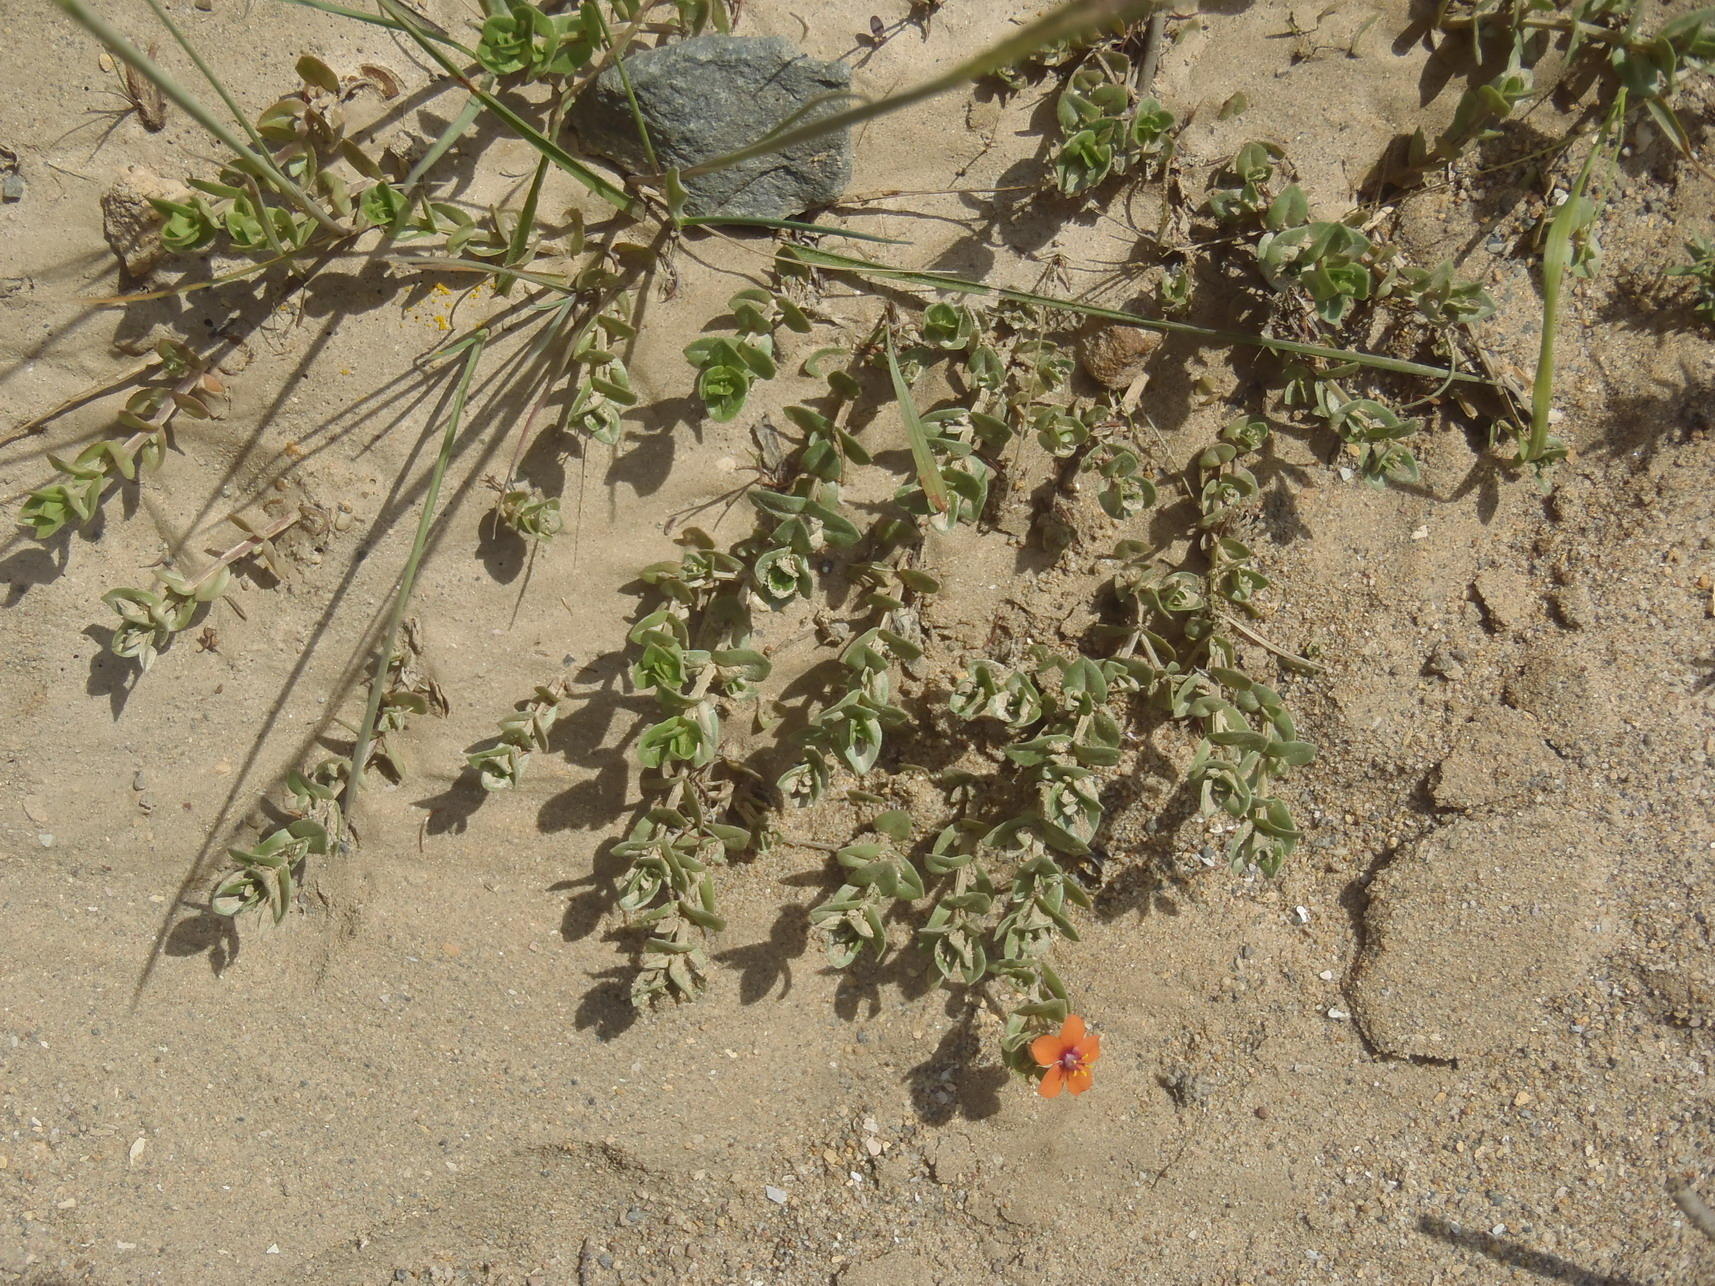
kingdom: Plantae
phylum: Tracheophyta
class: Magnoliopsida
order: Ericales
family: Primulaceae
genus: Lysimachia
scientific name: Lysimachia arvensis
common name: Scarlet pimpernel
